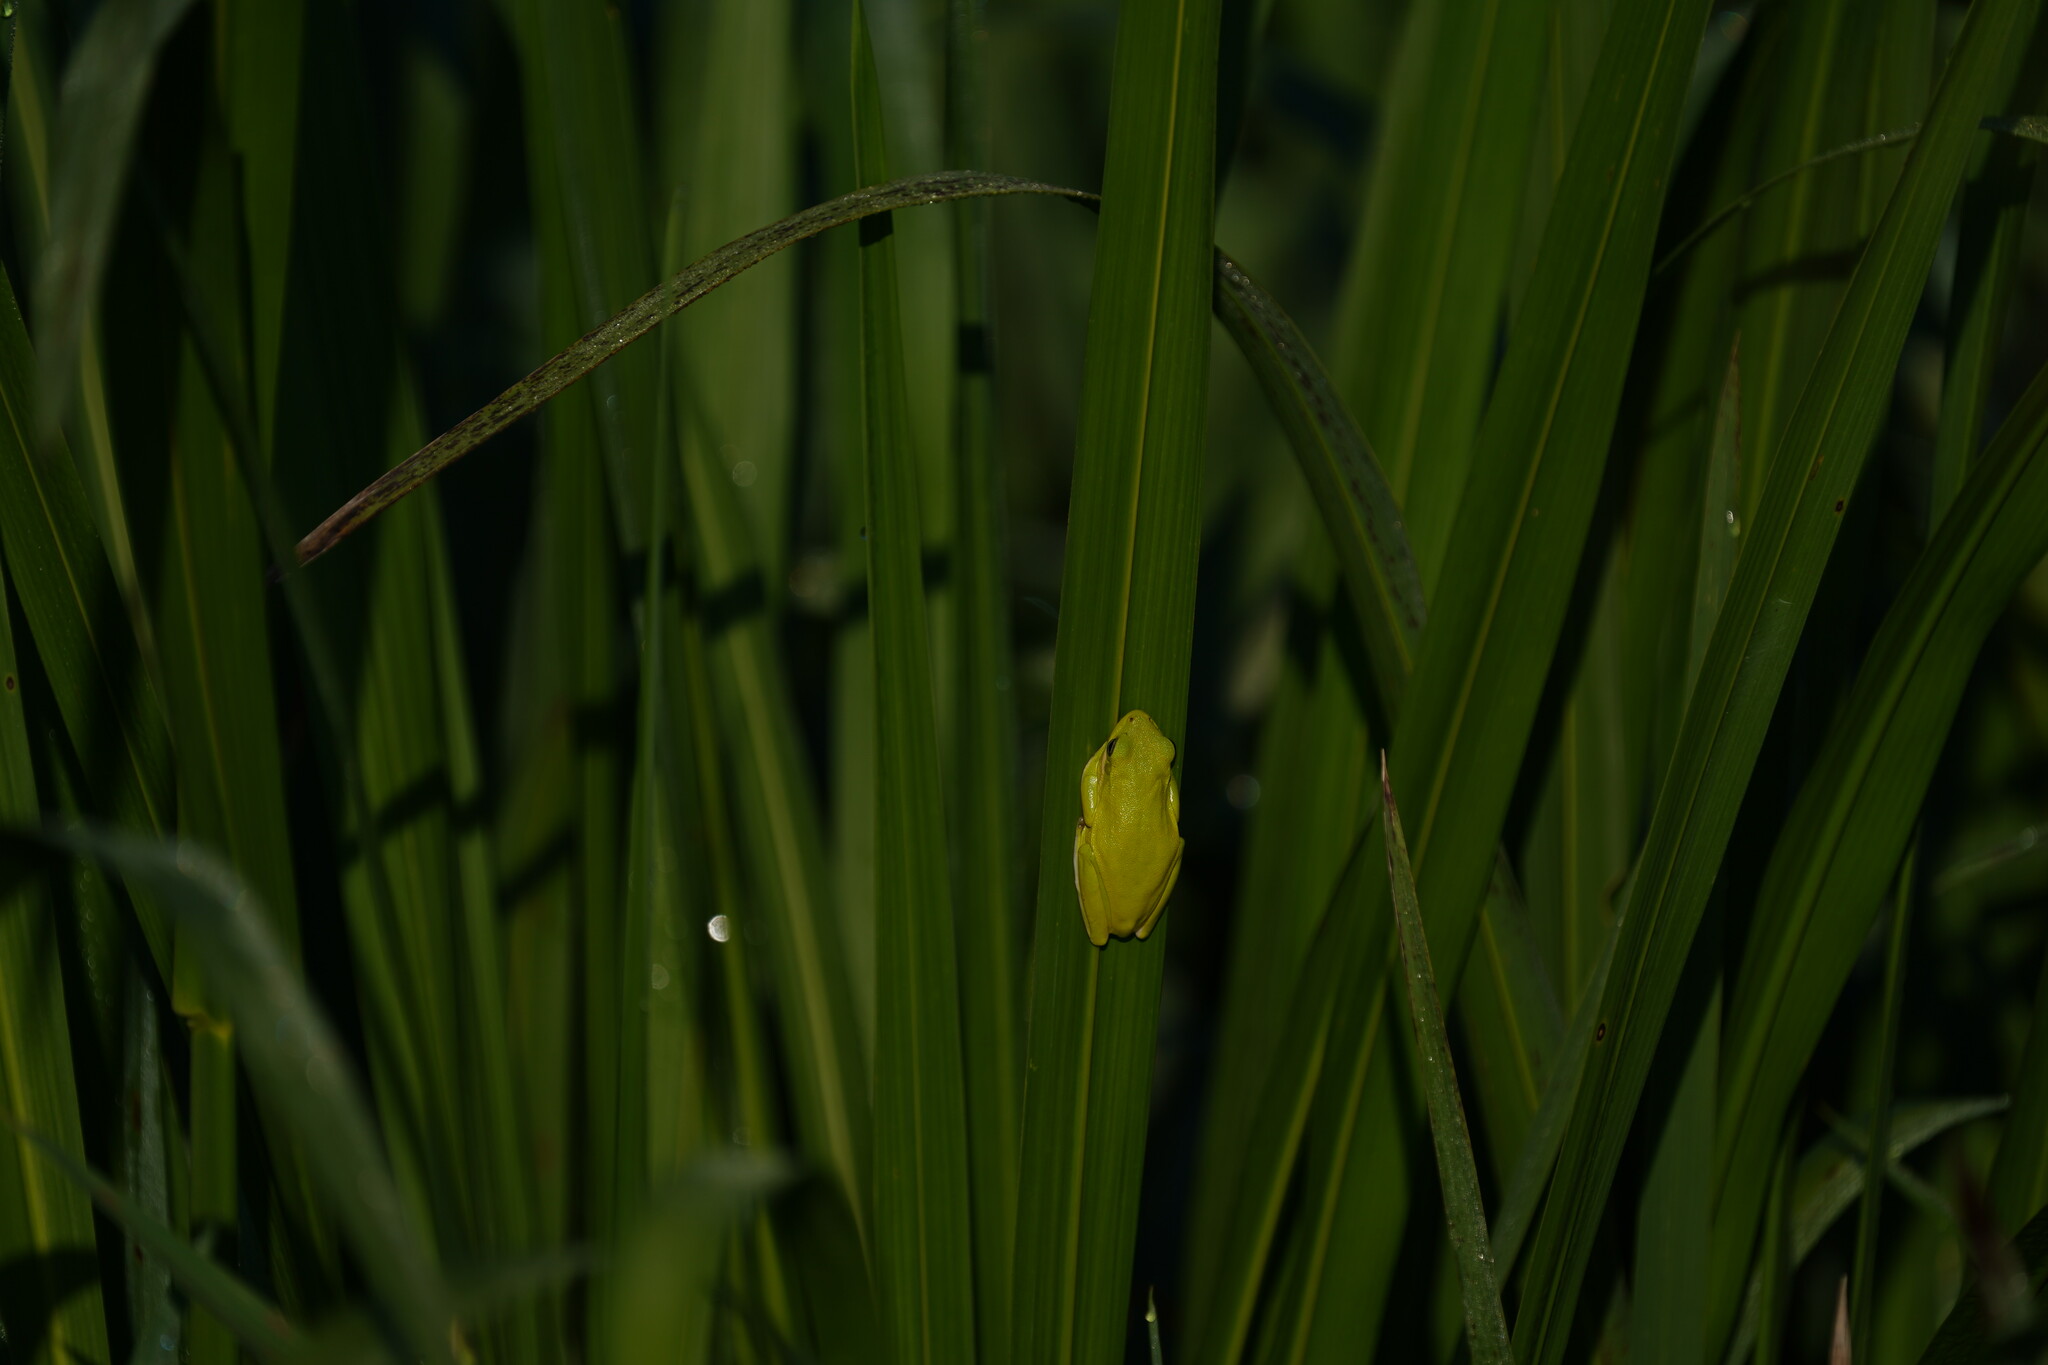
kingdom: Animalia
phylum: Chordata
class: Amphibia
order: Anura
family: Hylidae
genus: Dryophytes
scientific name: Dryophytes cinereus
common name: Green treefrog
